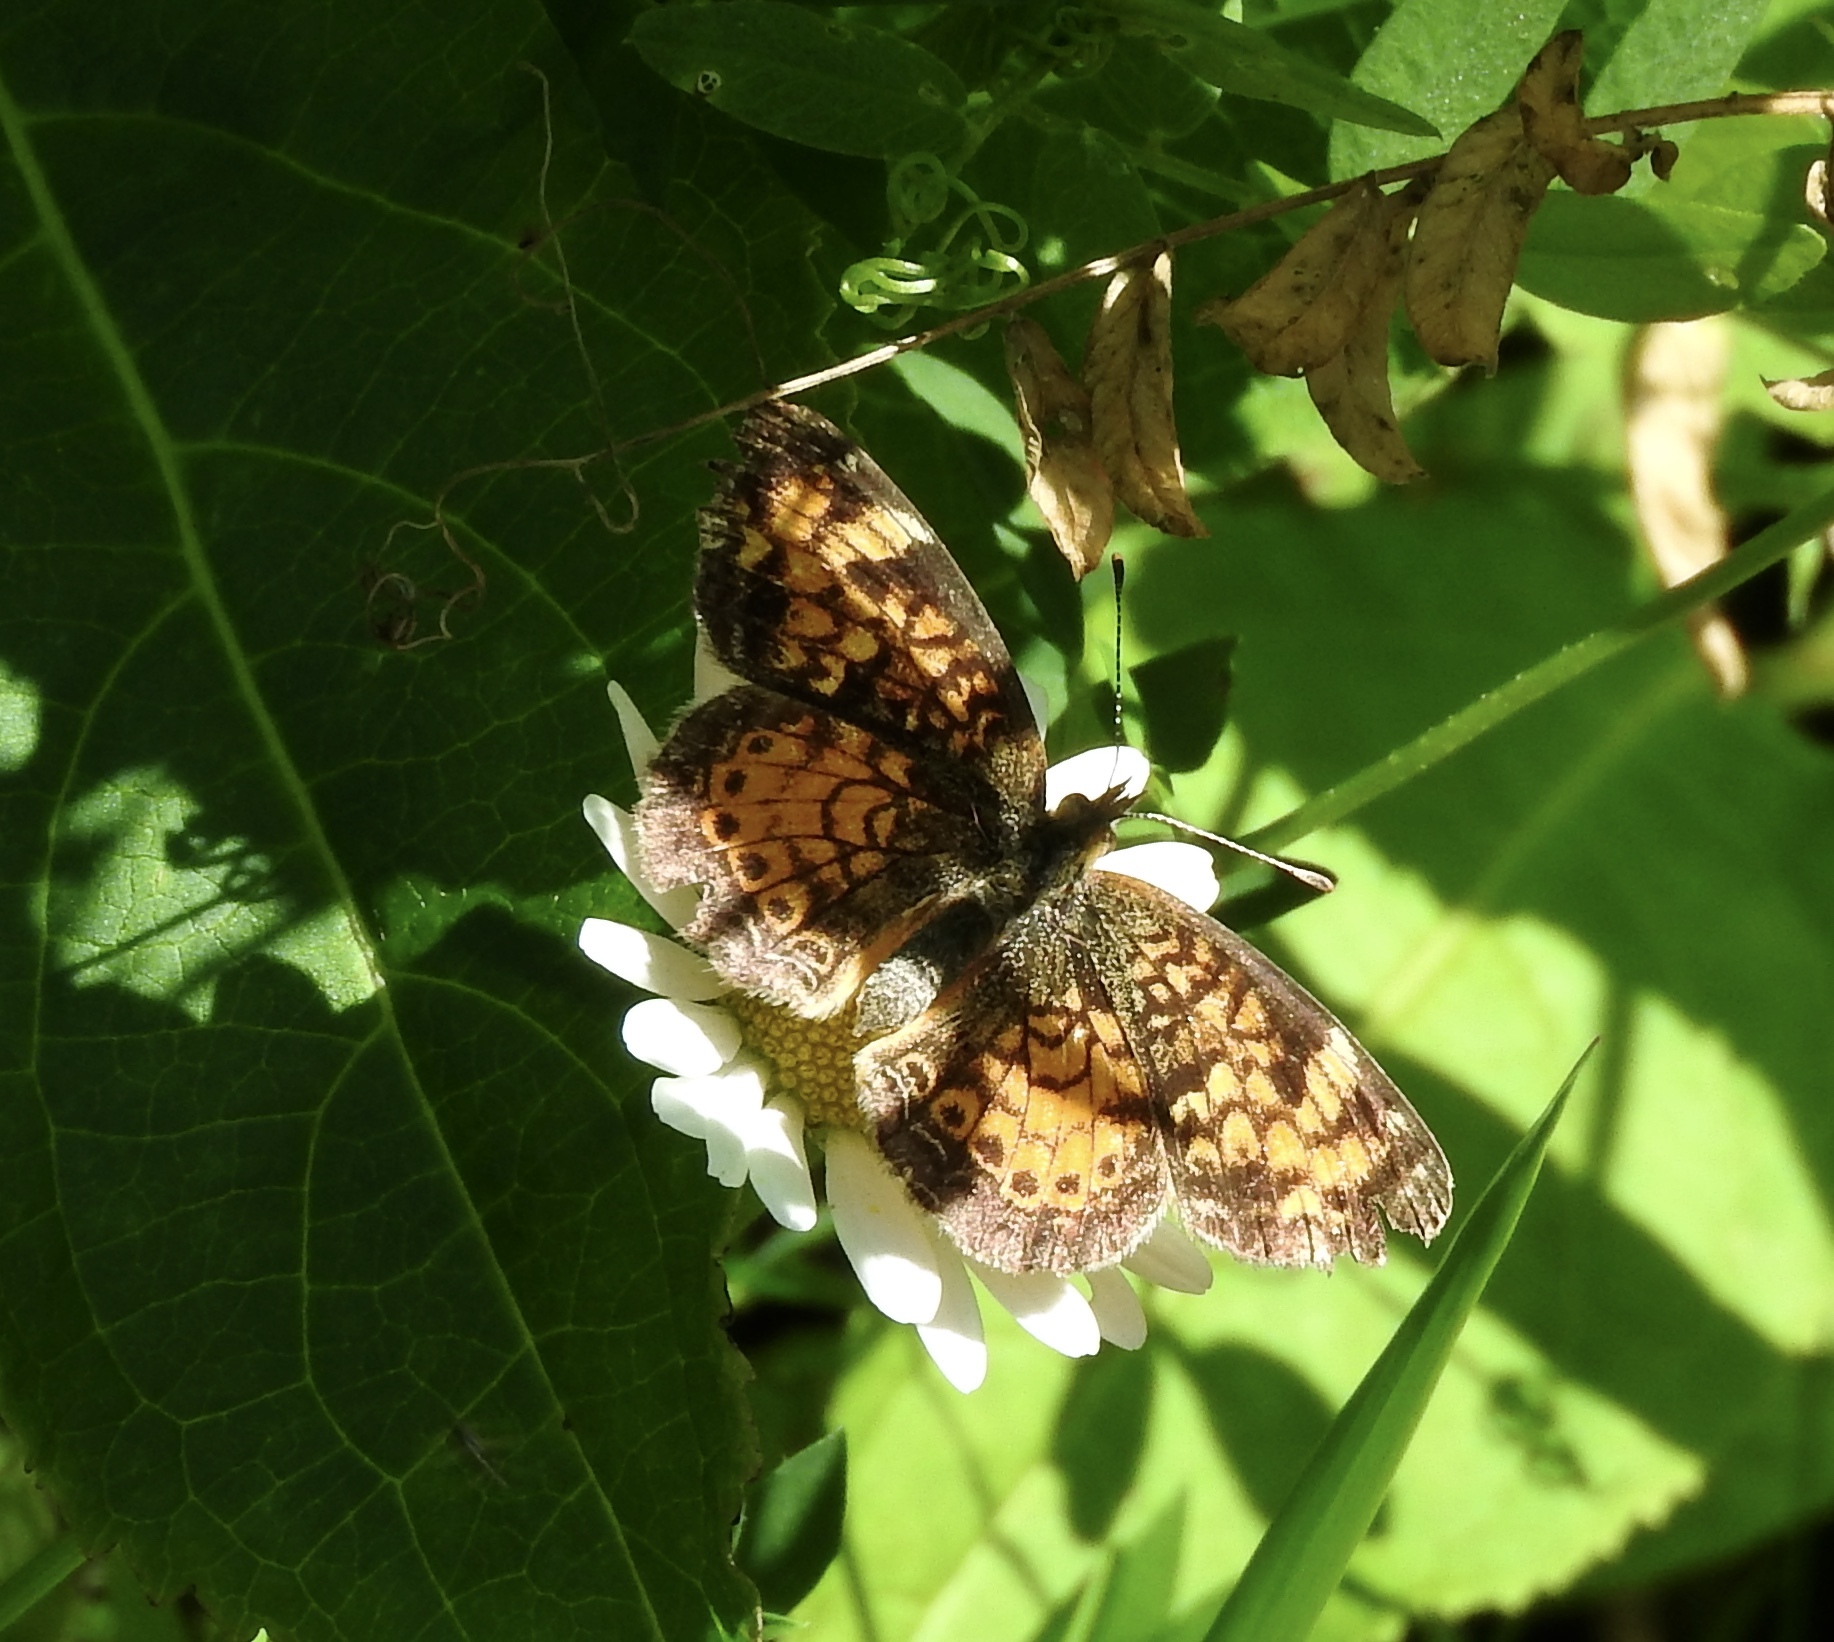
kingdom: Animalia
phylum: Arthropoda
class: Insecta
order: Lepidoptera
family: Nymphalidae
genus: Phyciodes
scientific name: Phyciodes tharos
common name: Pearl crescent
